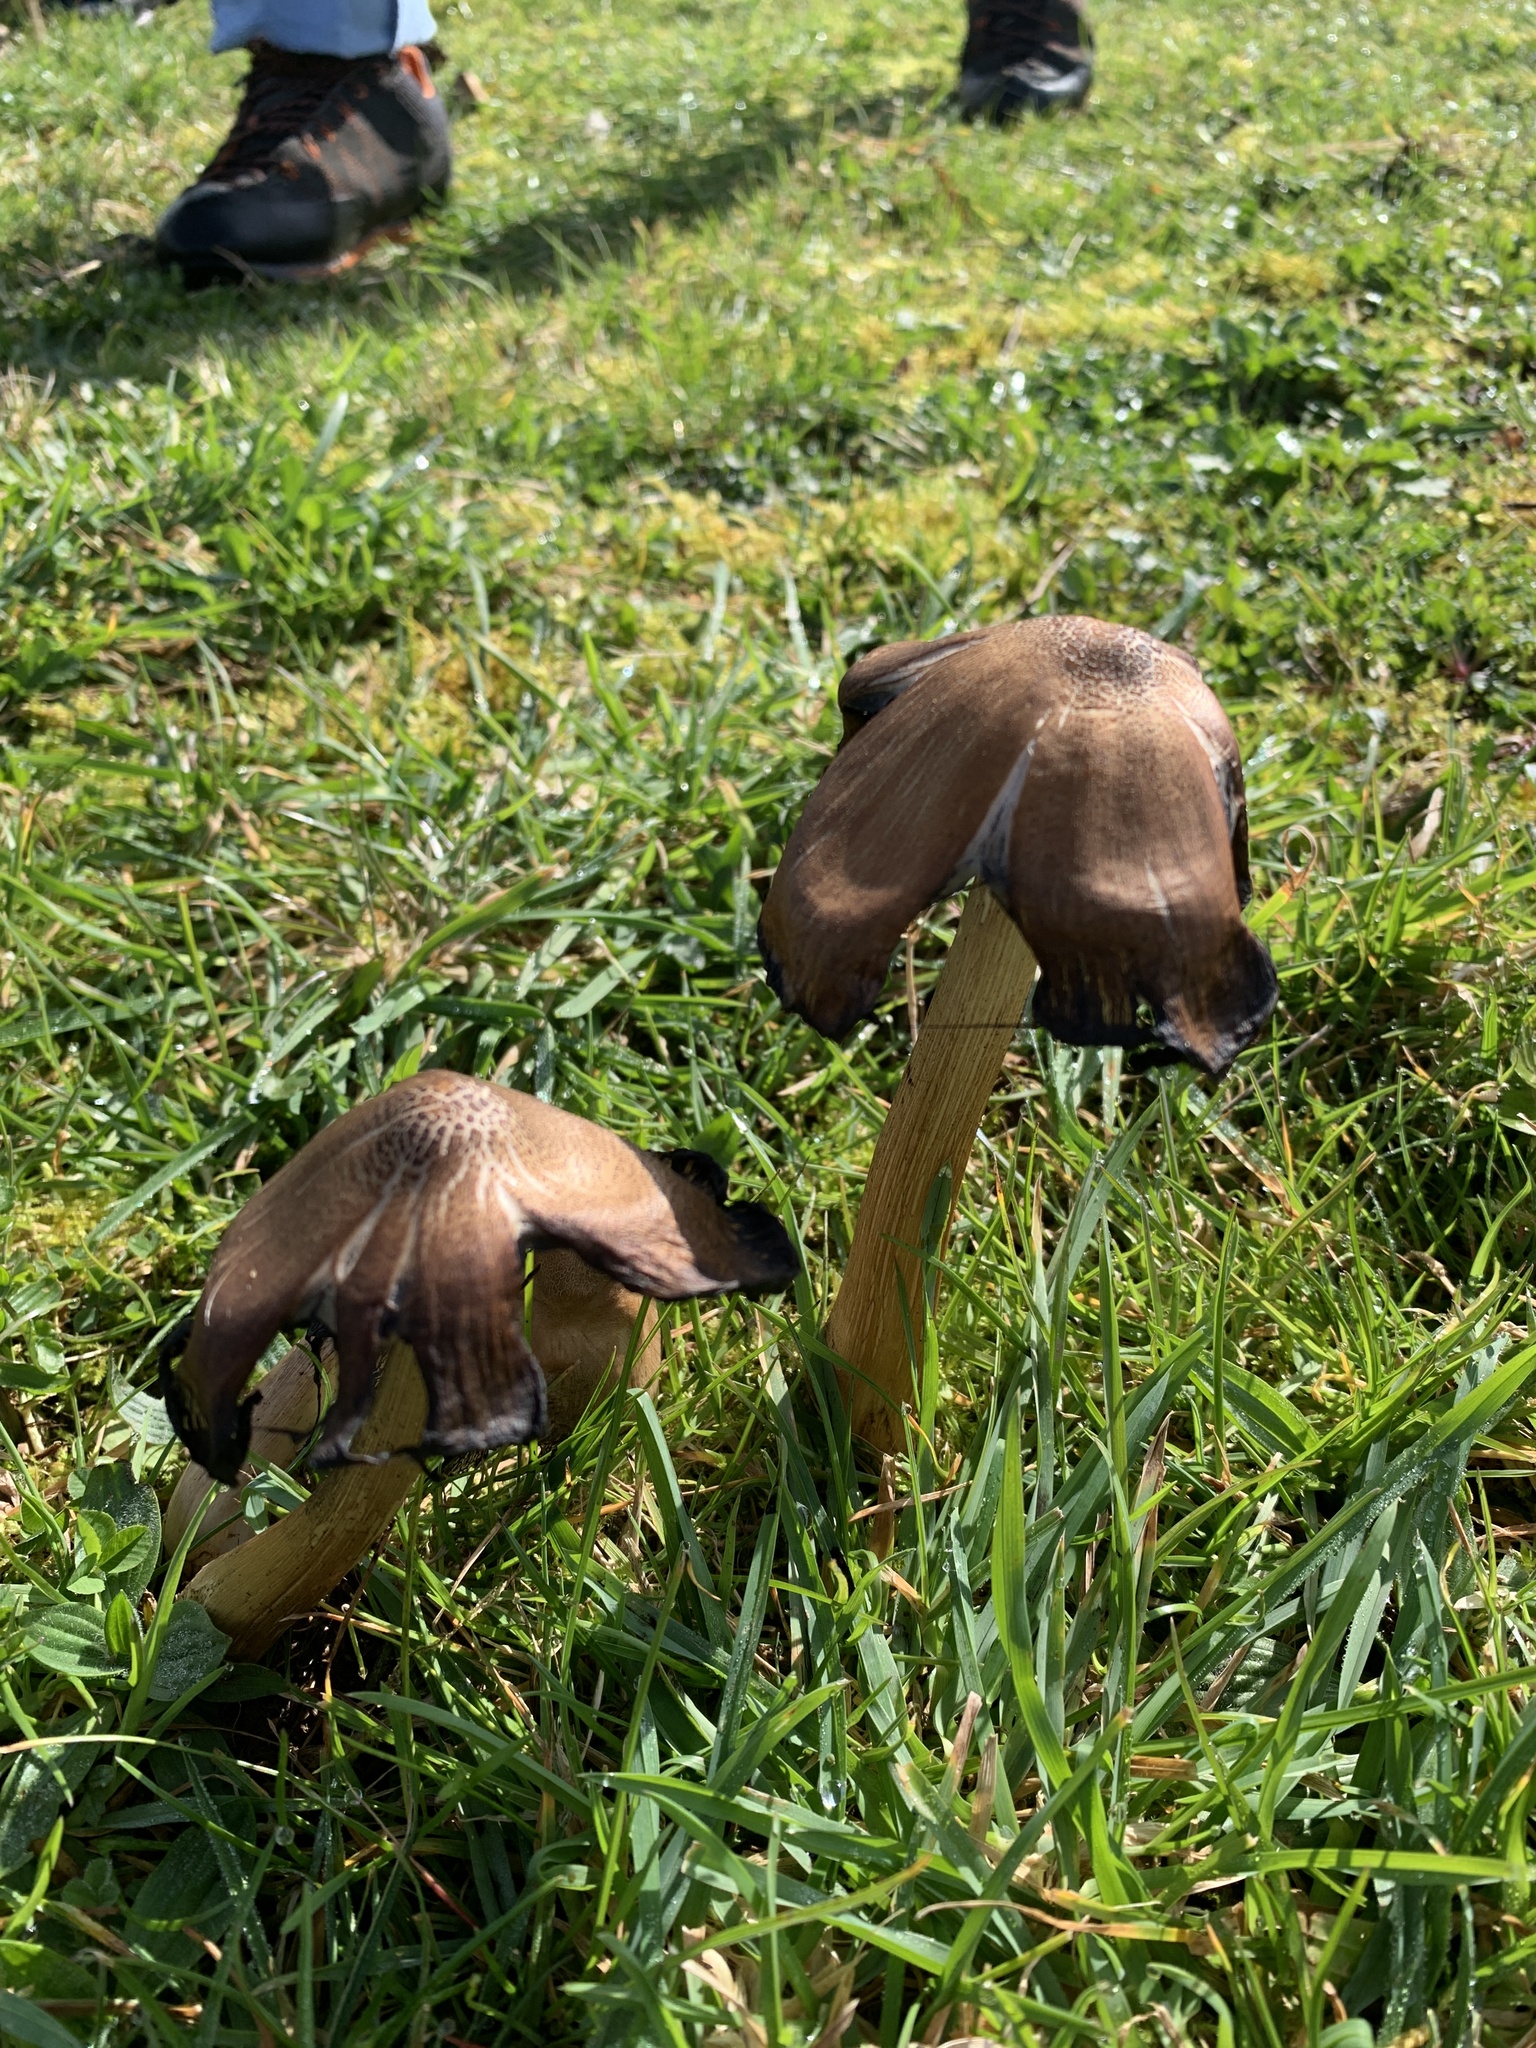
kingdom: Fungi
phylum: Basidiomycota
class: Agaricomycetes
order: Agaricales
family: Agaricaceae
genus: Coprinus
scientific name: Coprinus comatus
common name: Lawyer's wig
